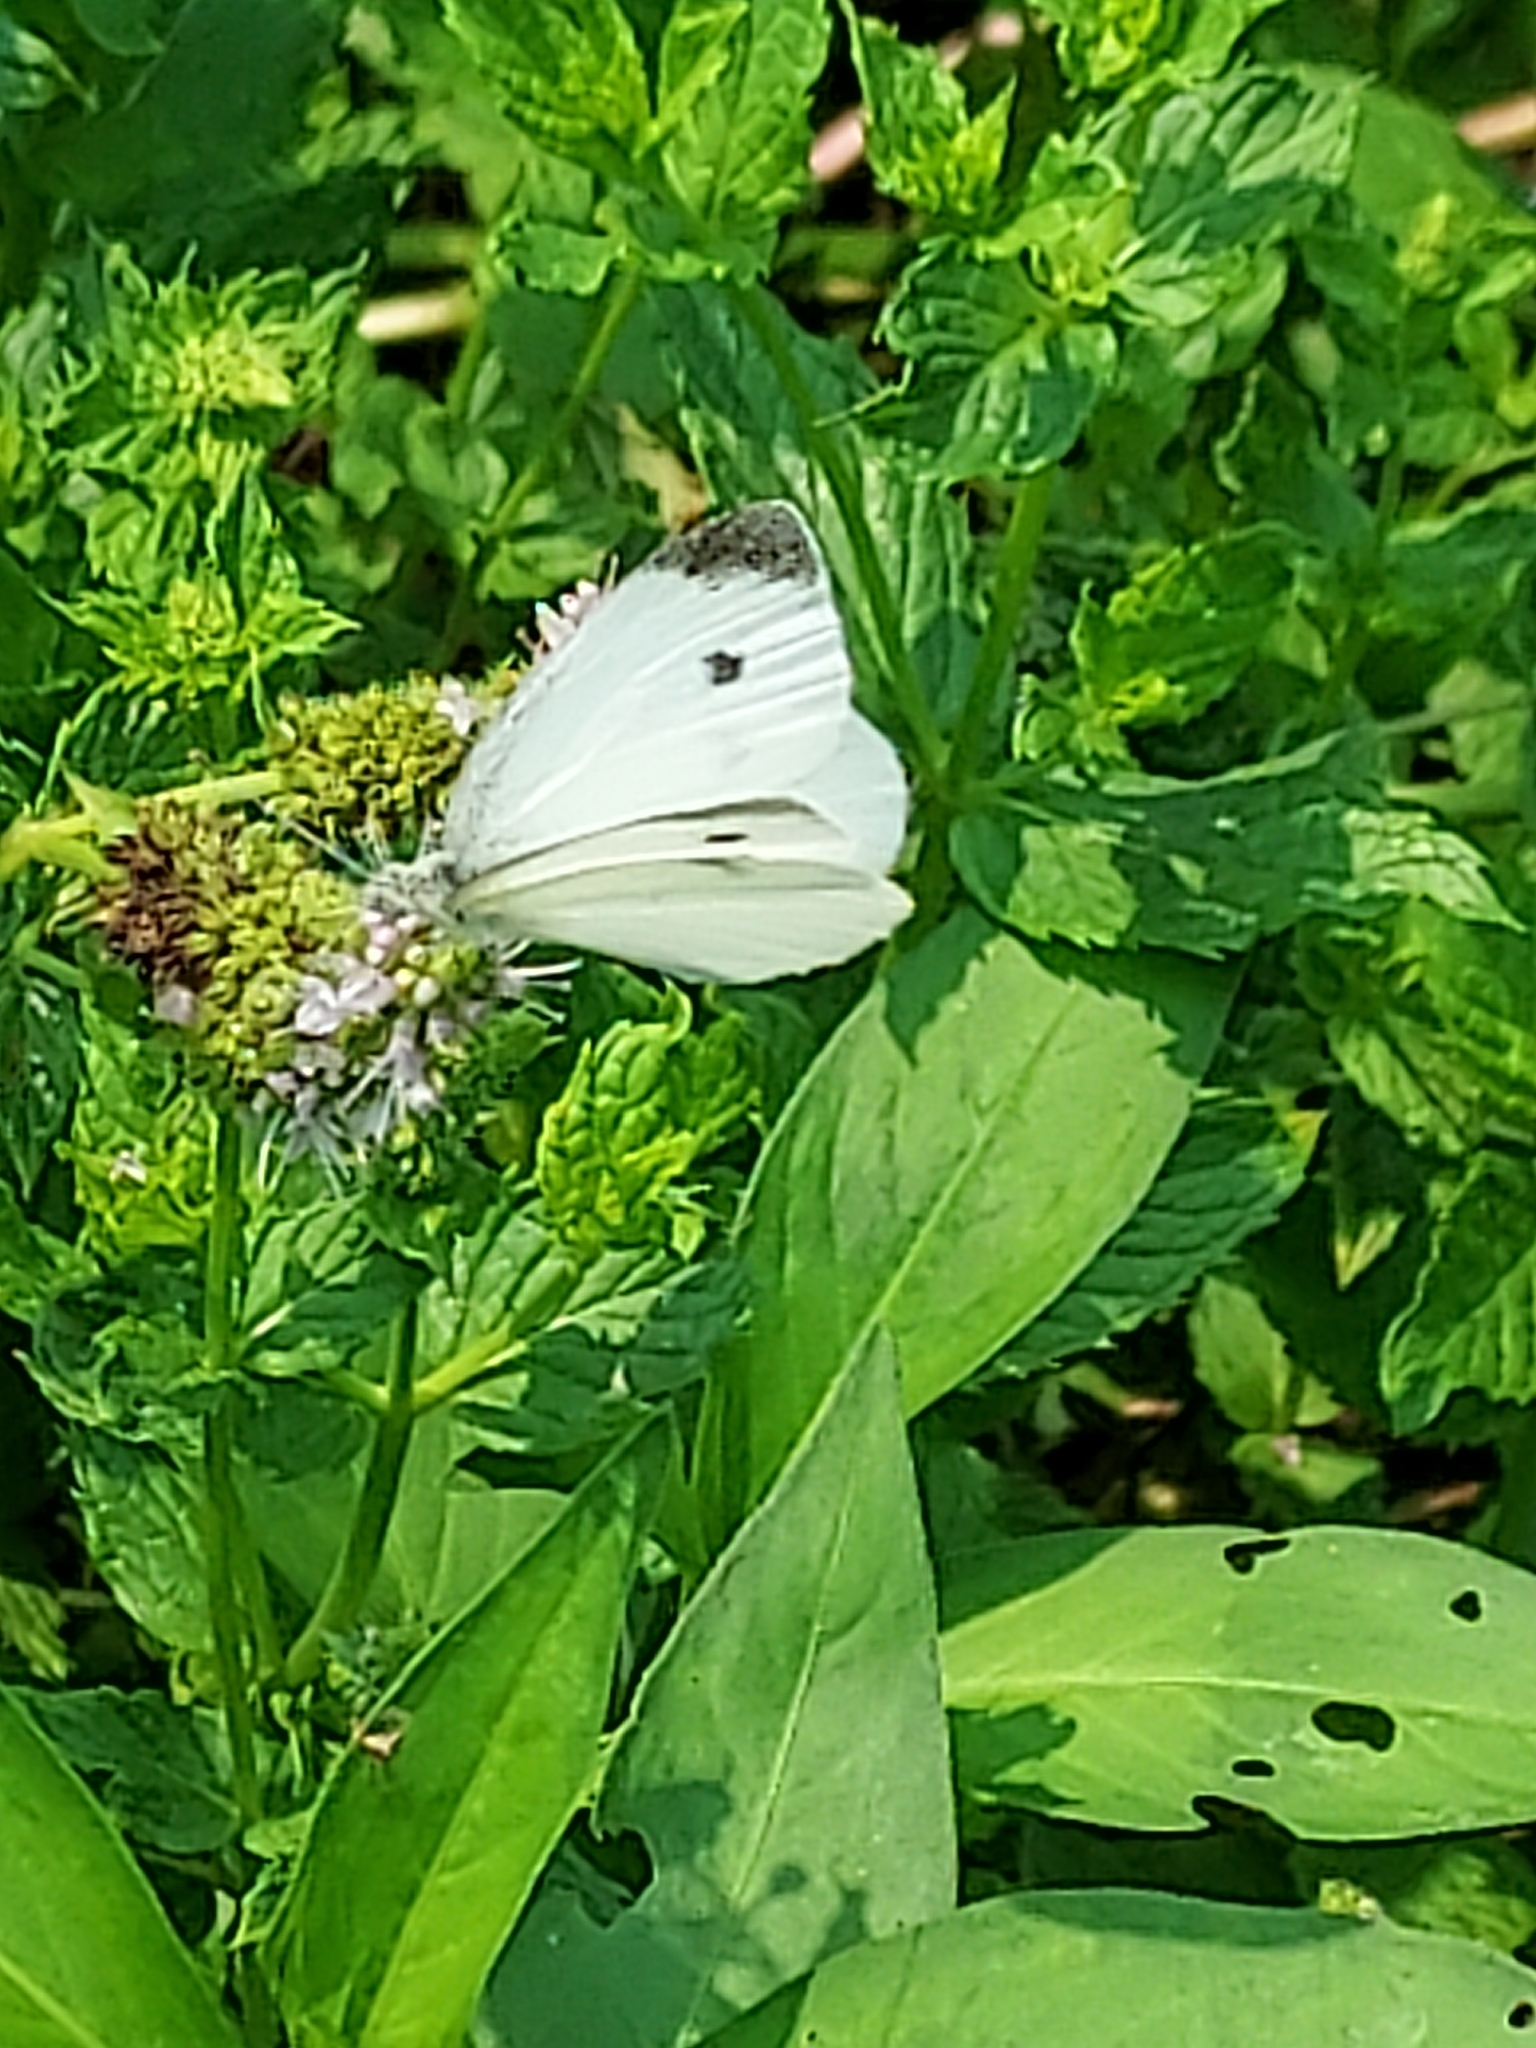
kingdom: Animalia
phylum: Arthropoda
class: Insecta
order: Lepidoptera
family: Pieridae
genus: Pieris
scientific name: Pieris rapae
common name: Small white
